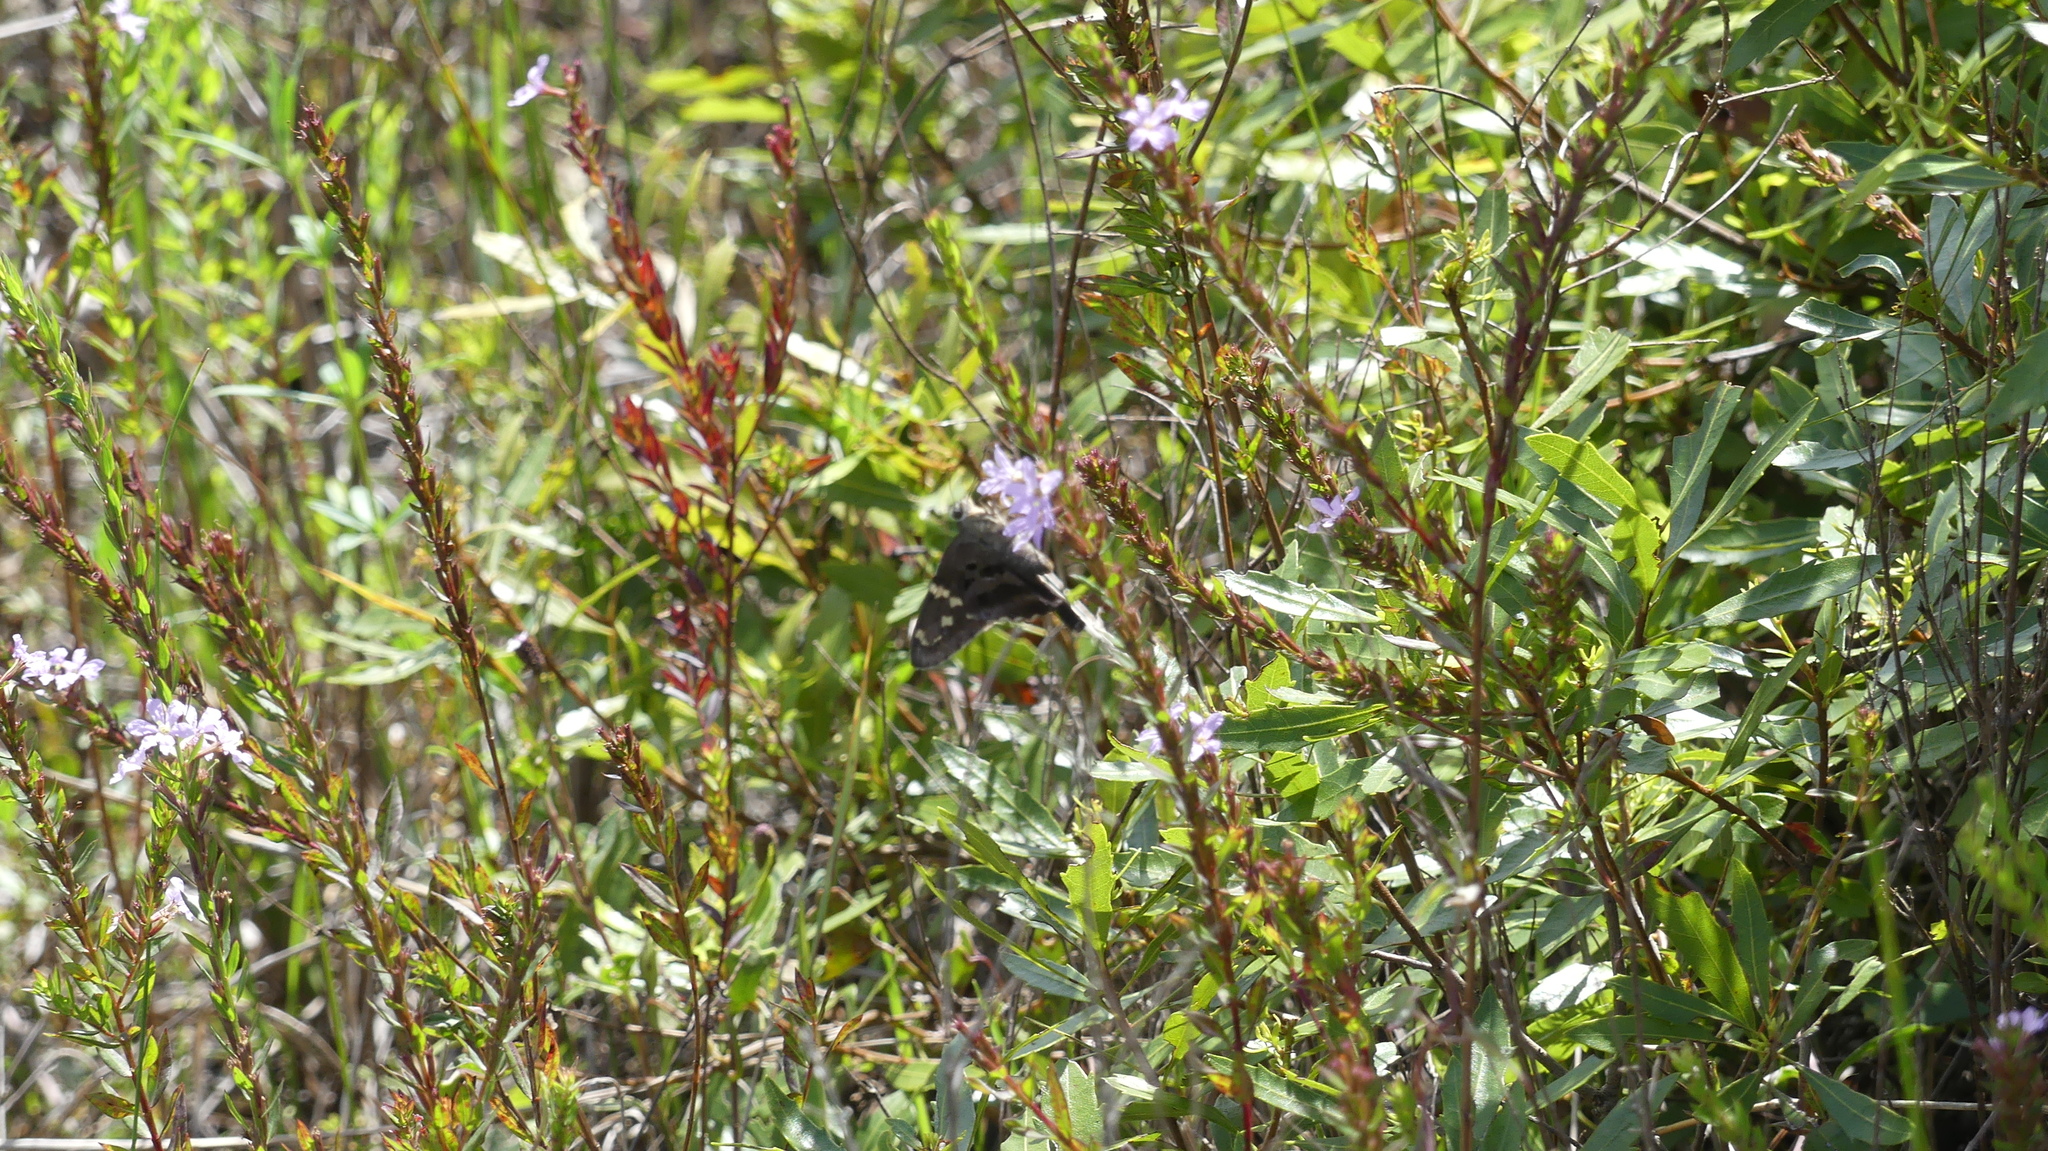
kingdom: Animalia
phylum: Arthropoda
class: Insecta
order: Lepidoptera
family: Hesperiidae
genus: Urbanus
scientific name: Urbanus proteus
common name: Long-tailed skipper
